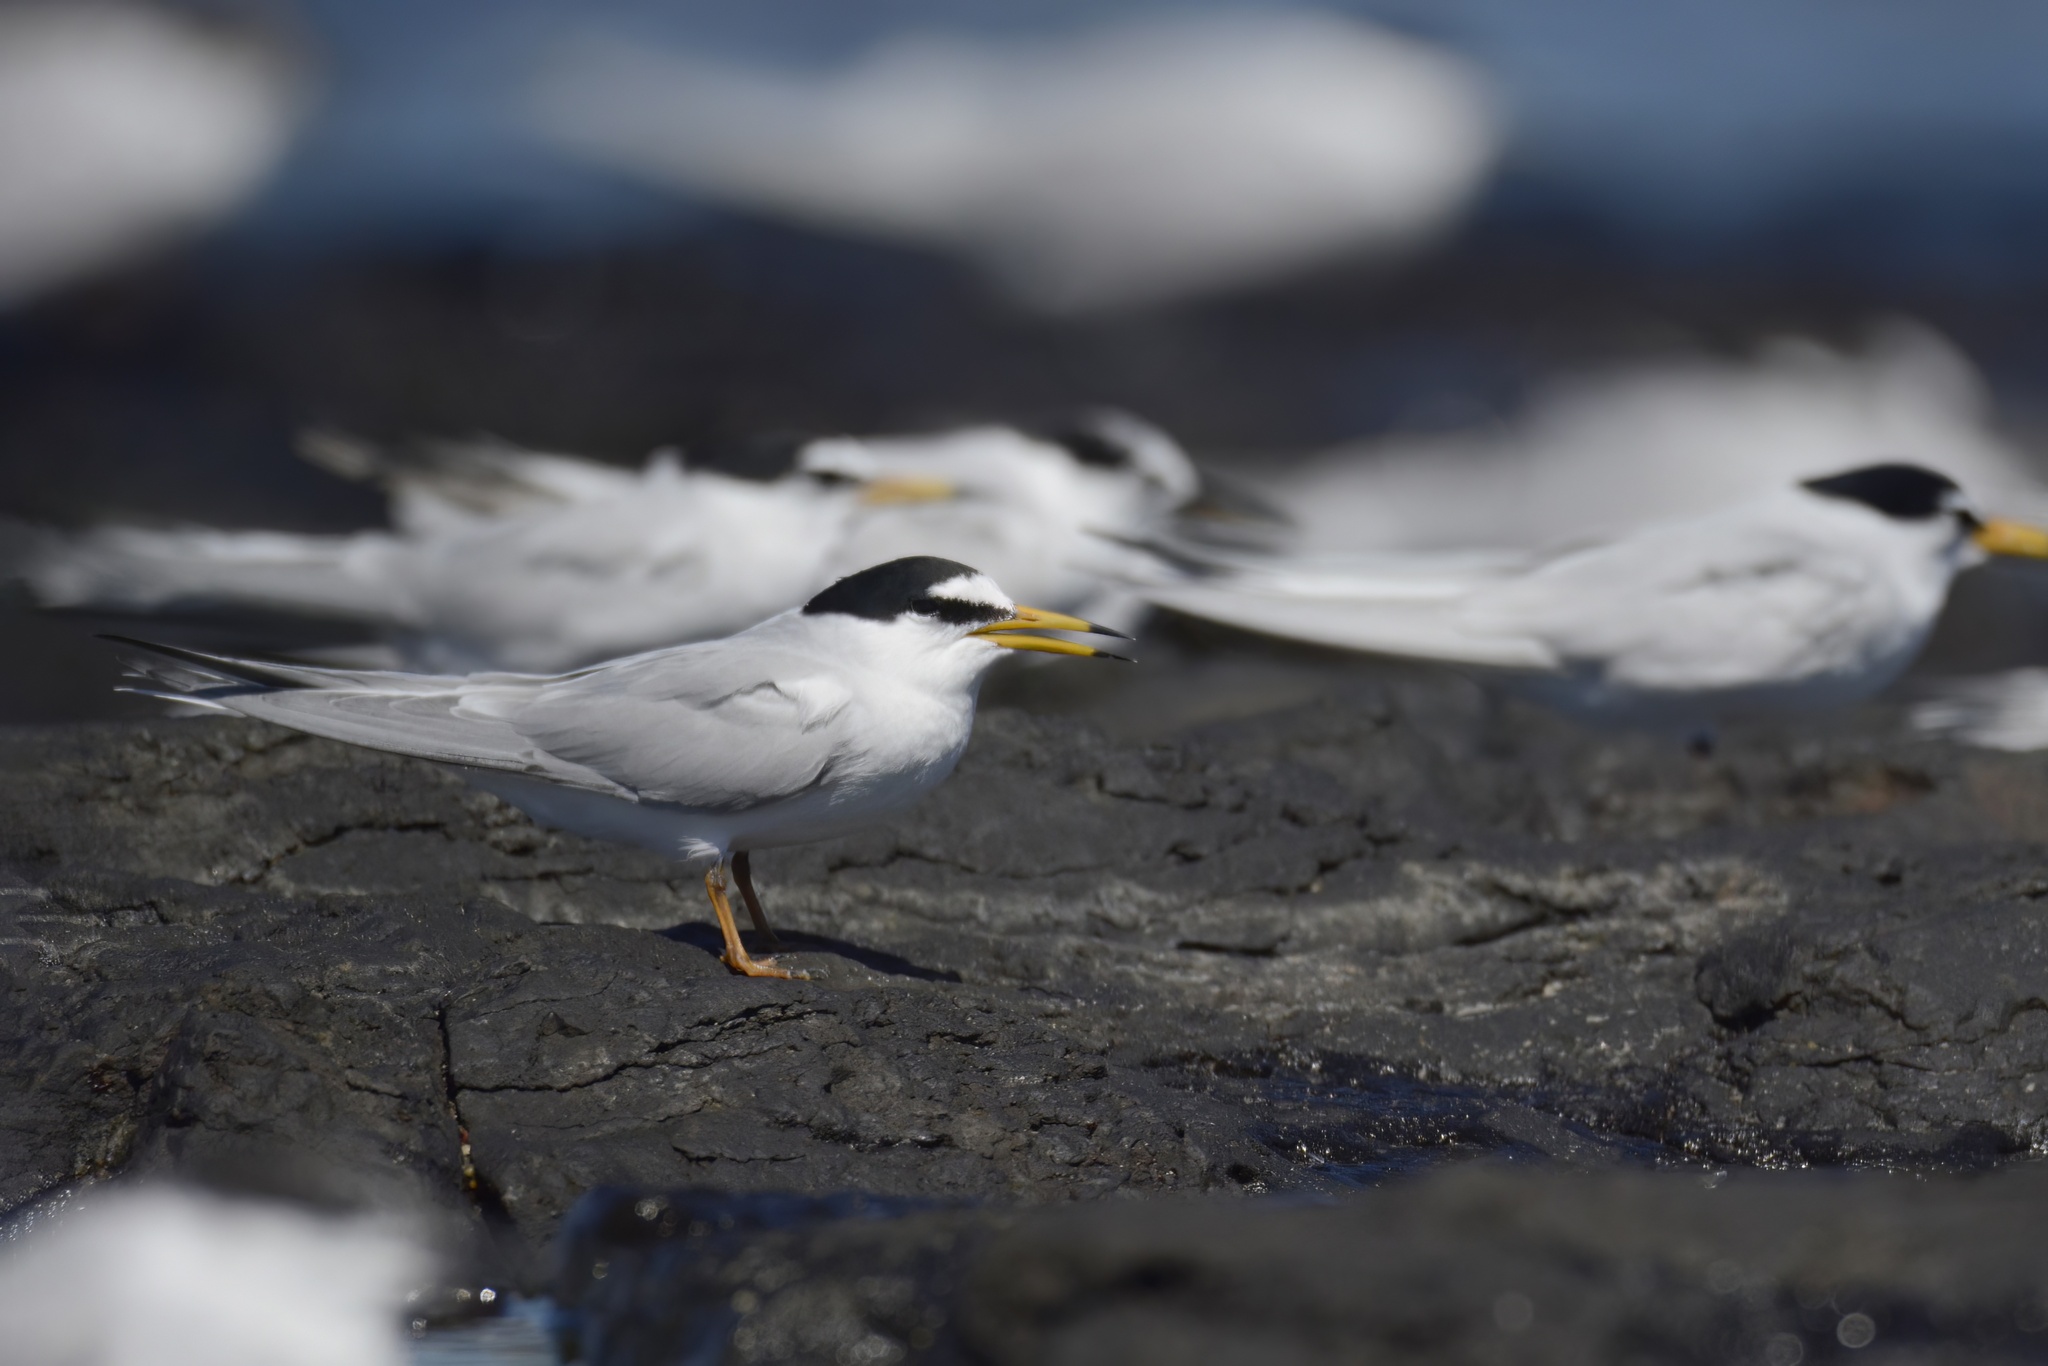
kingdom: Animalia
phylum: Chordata
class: Aves
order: Charadriiformes
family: Laridae
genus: Sternula
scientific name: Sternula albifrons
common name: Little tern
